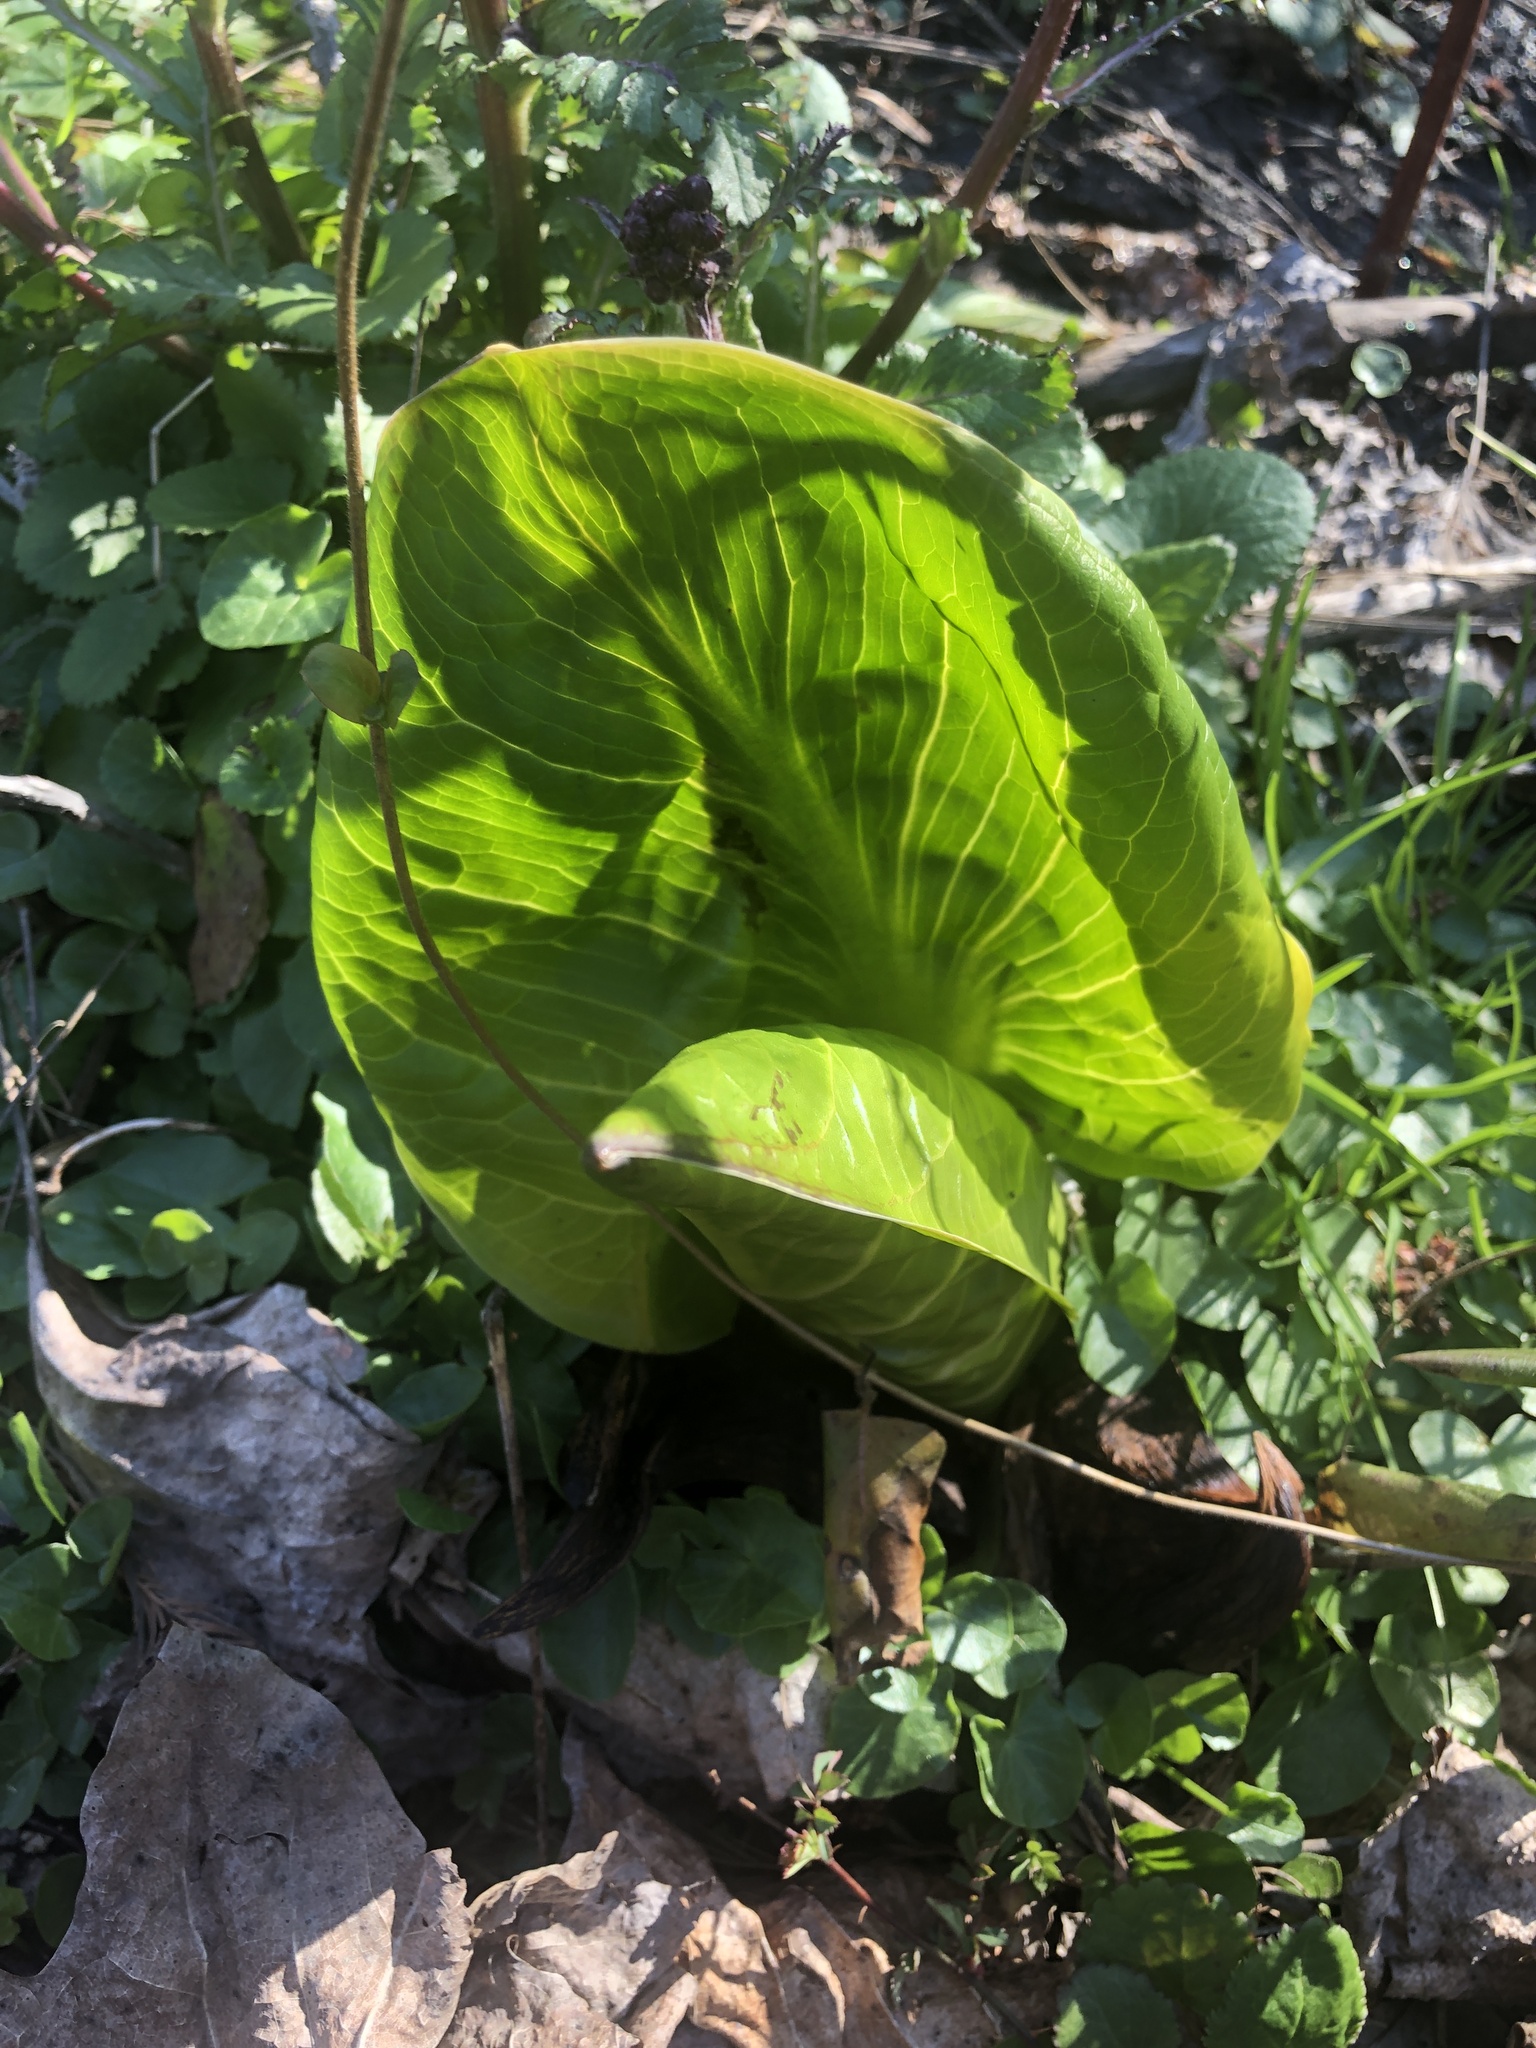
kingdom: Plantae
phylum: Tracheophyta
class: Liliopsida
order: Alismatales
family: Araceae
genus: Symplocarpus
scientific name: Symplocarpus foetidus
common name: Eastern skunk cabbage
